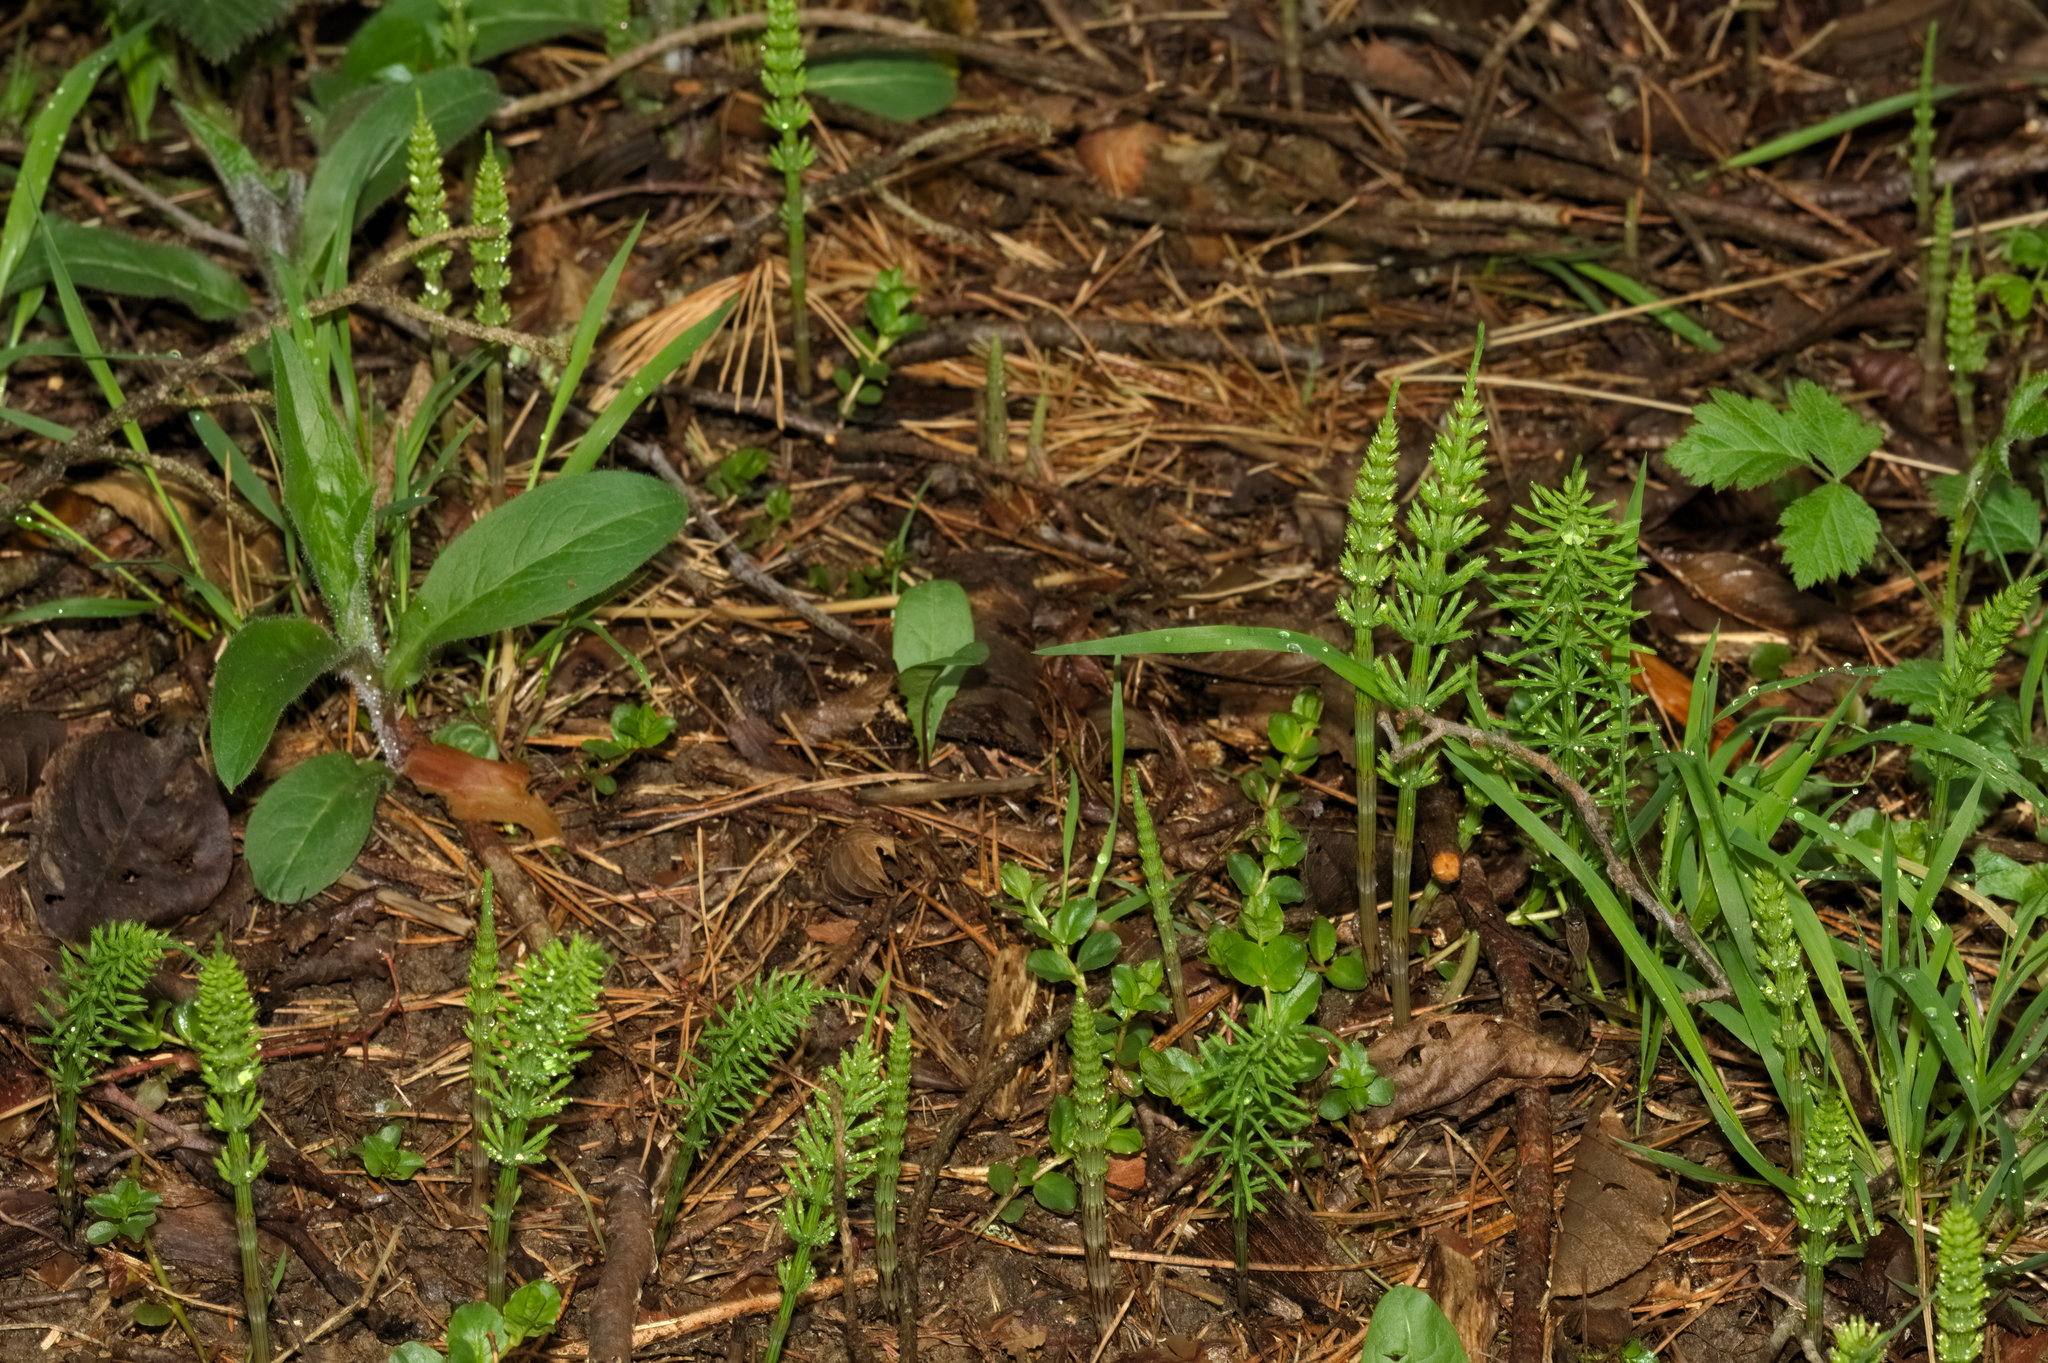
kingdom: Plantae
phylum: Tracheophyta
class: Polypodiopsida
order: Equisetales
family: Equisetaceae
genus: Equisetum
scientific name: Equisetum arvense
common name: Field horsetail
